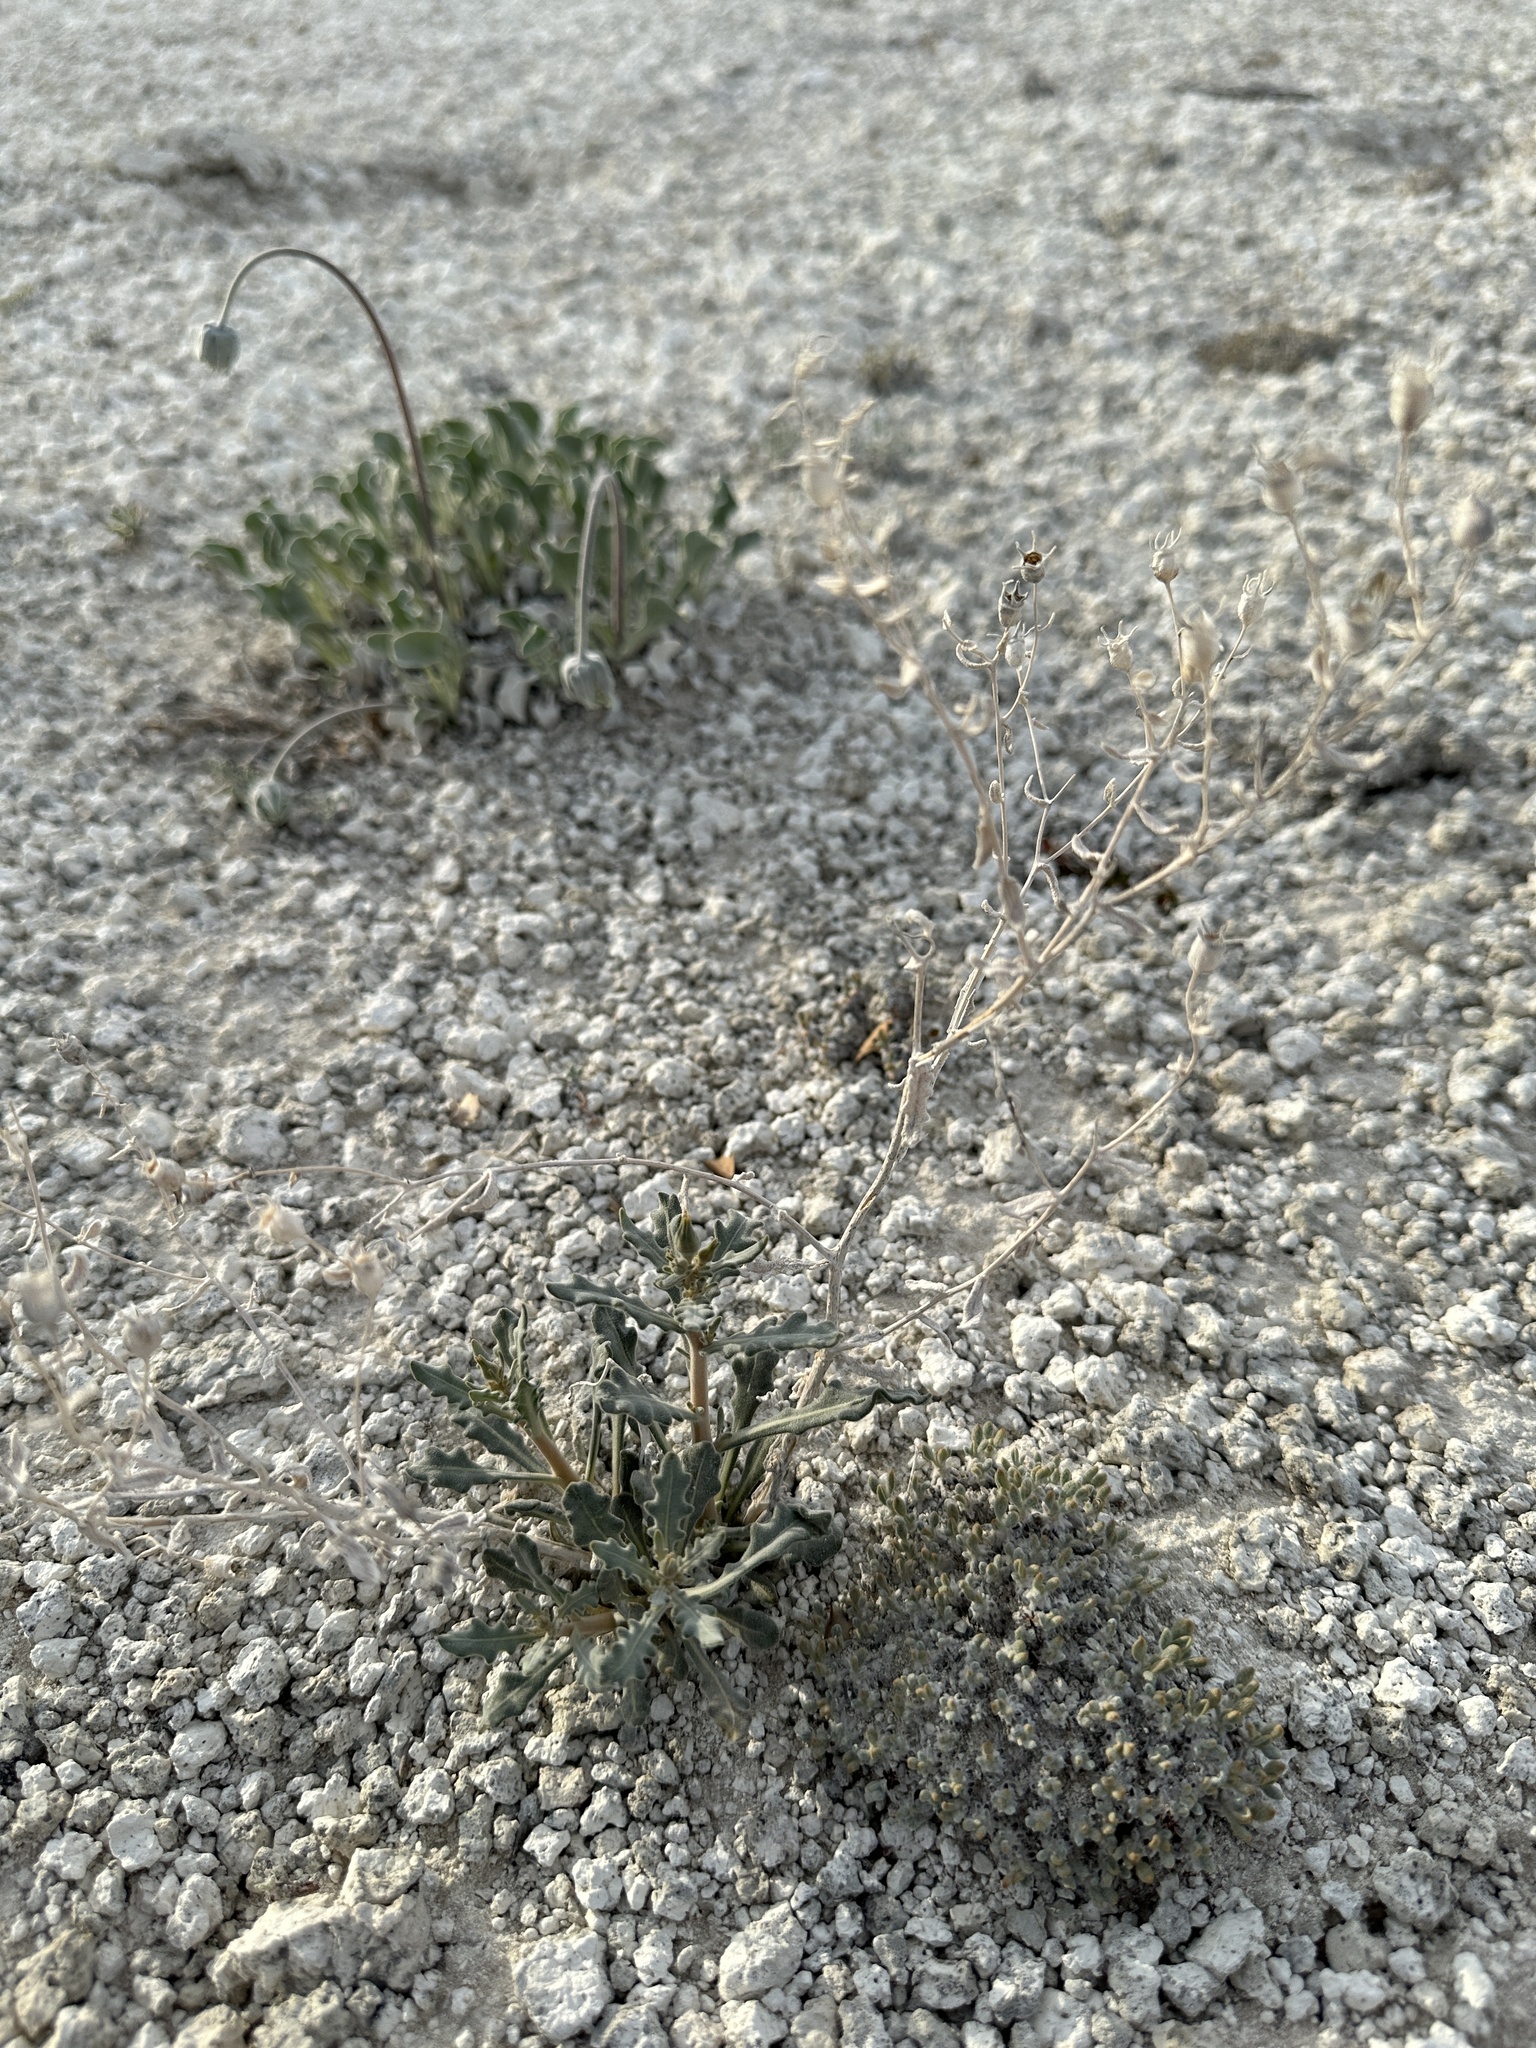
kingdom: Plantae
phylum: Tracheophyta
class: Magnoliopsida
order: Cornales
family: Loasaceae
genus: Mentzelia
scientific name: Mentzelia tiehmii
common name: Tiehm's blazing star
